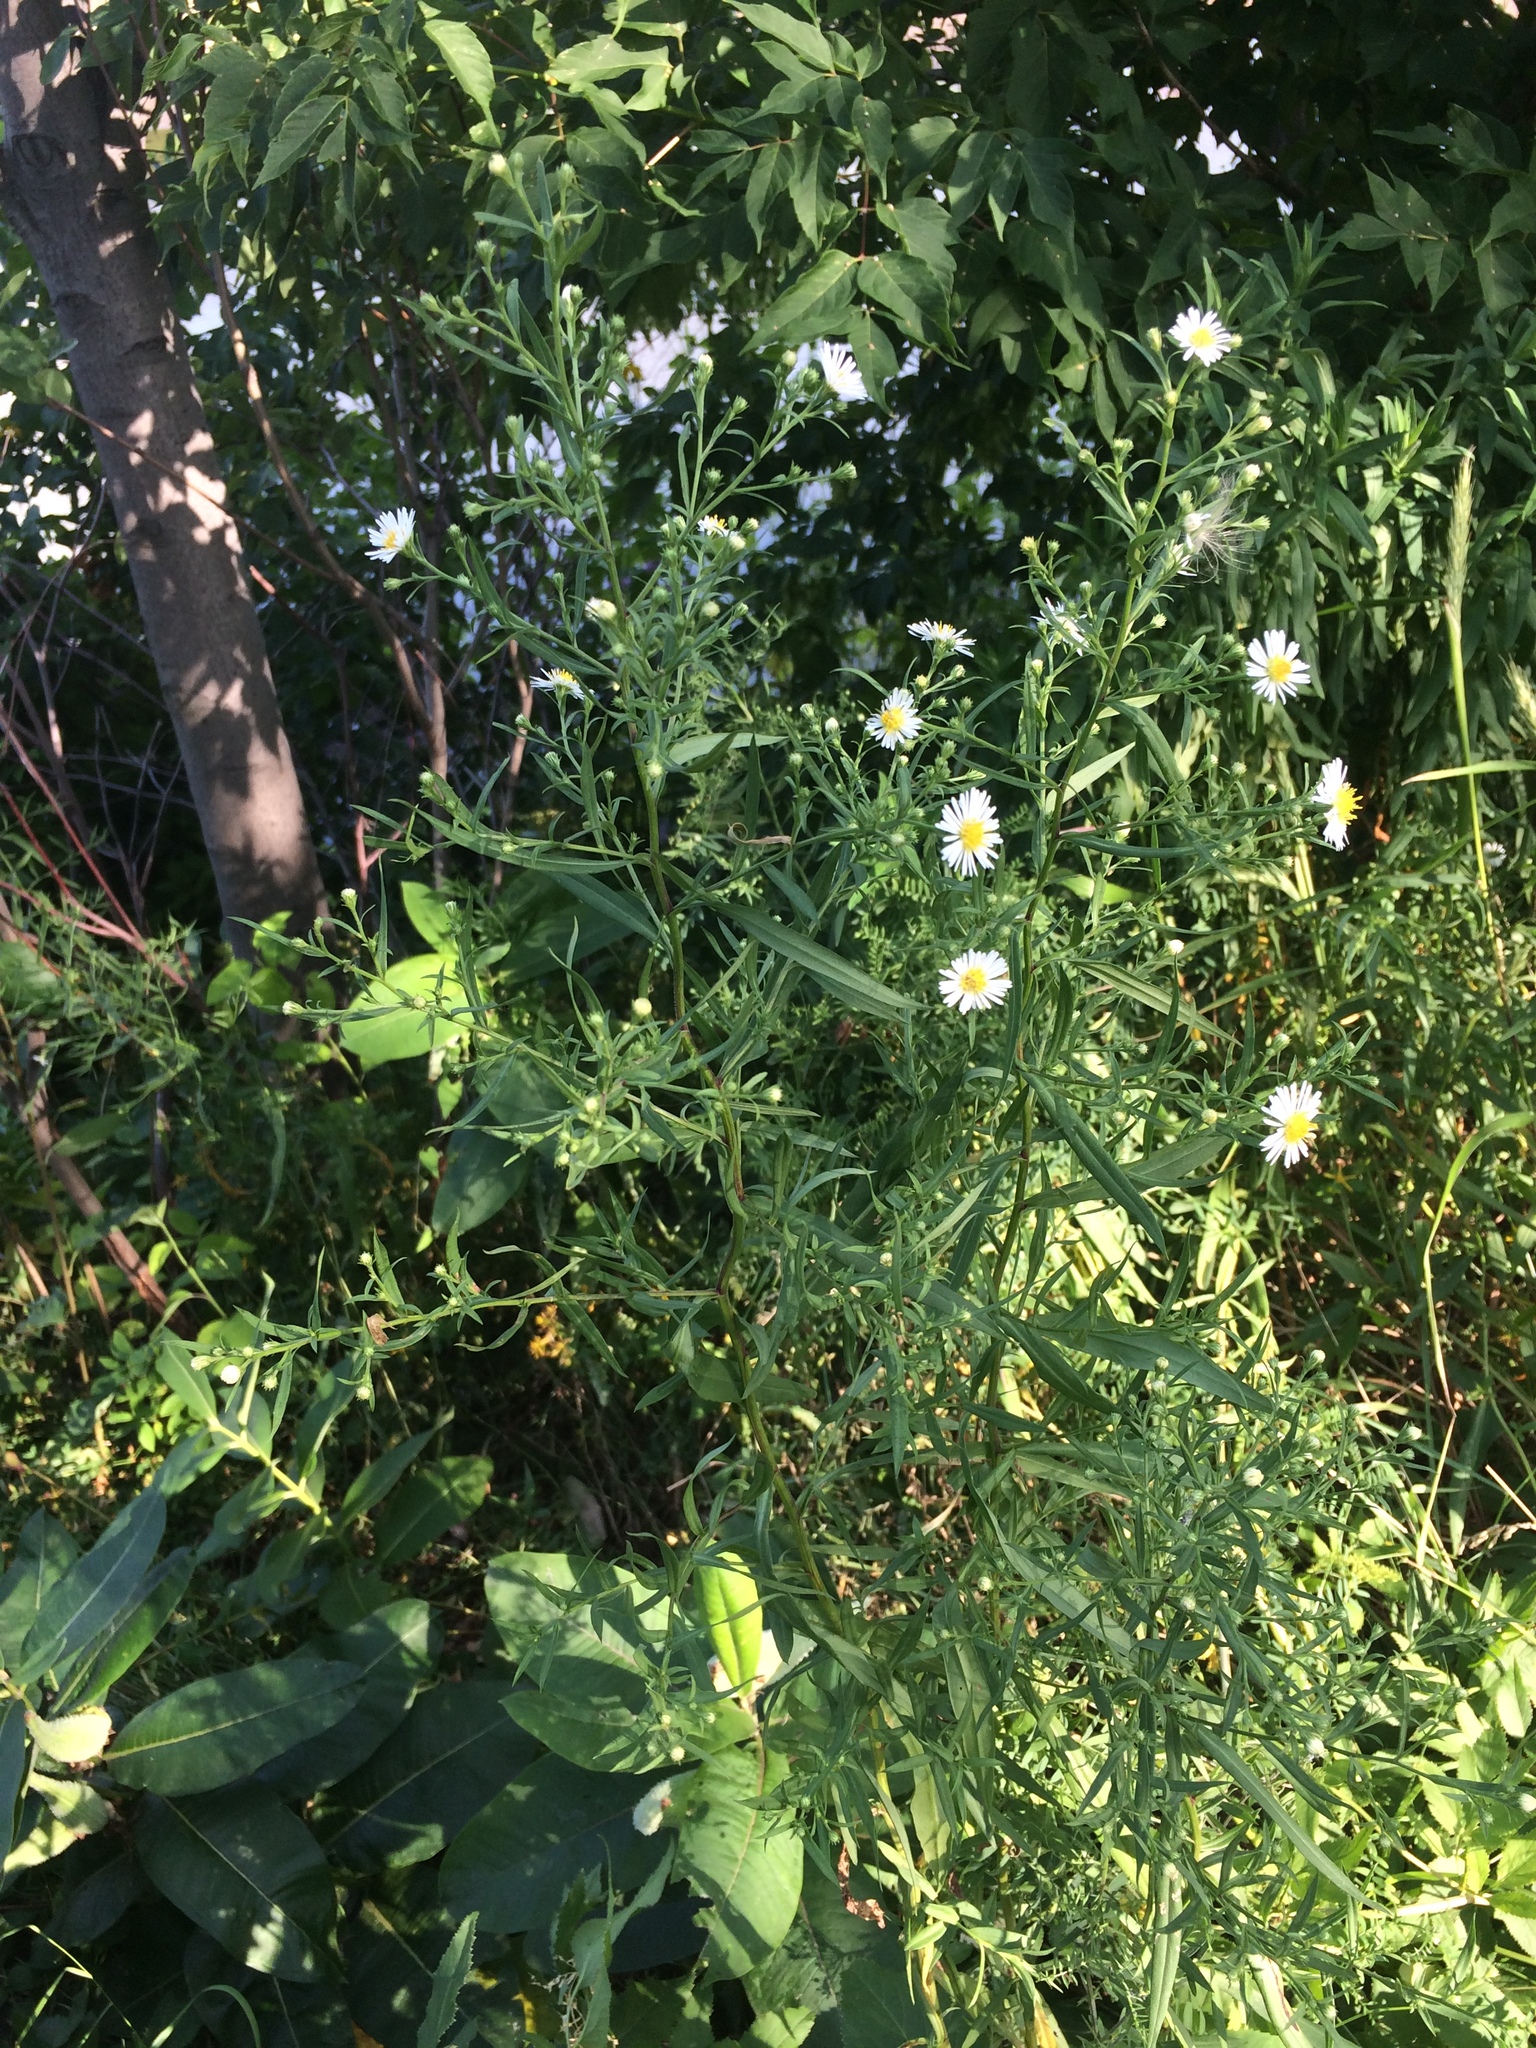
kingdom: Plantae
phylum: Tracheophyta
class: Magnoliopsida
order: Asterales
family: Asteraceae
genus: Symphyotrichum
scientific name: Symphyotrichum lanceolatum
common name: Panicled aster
